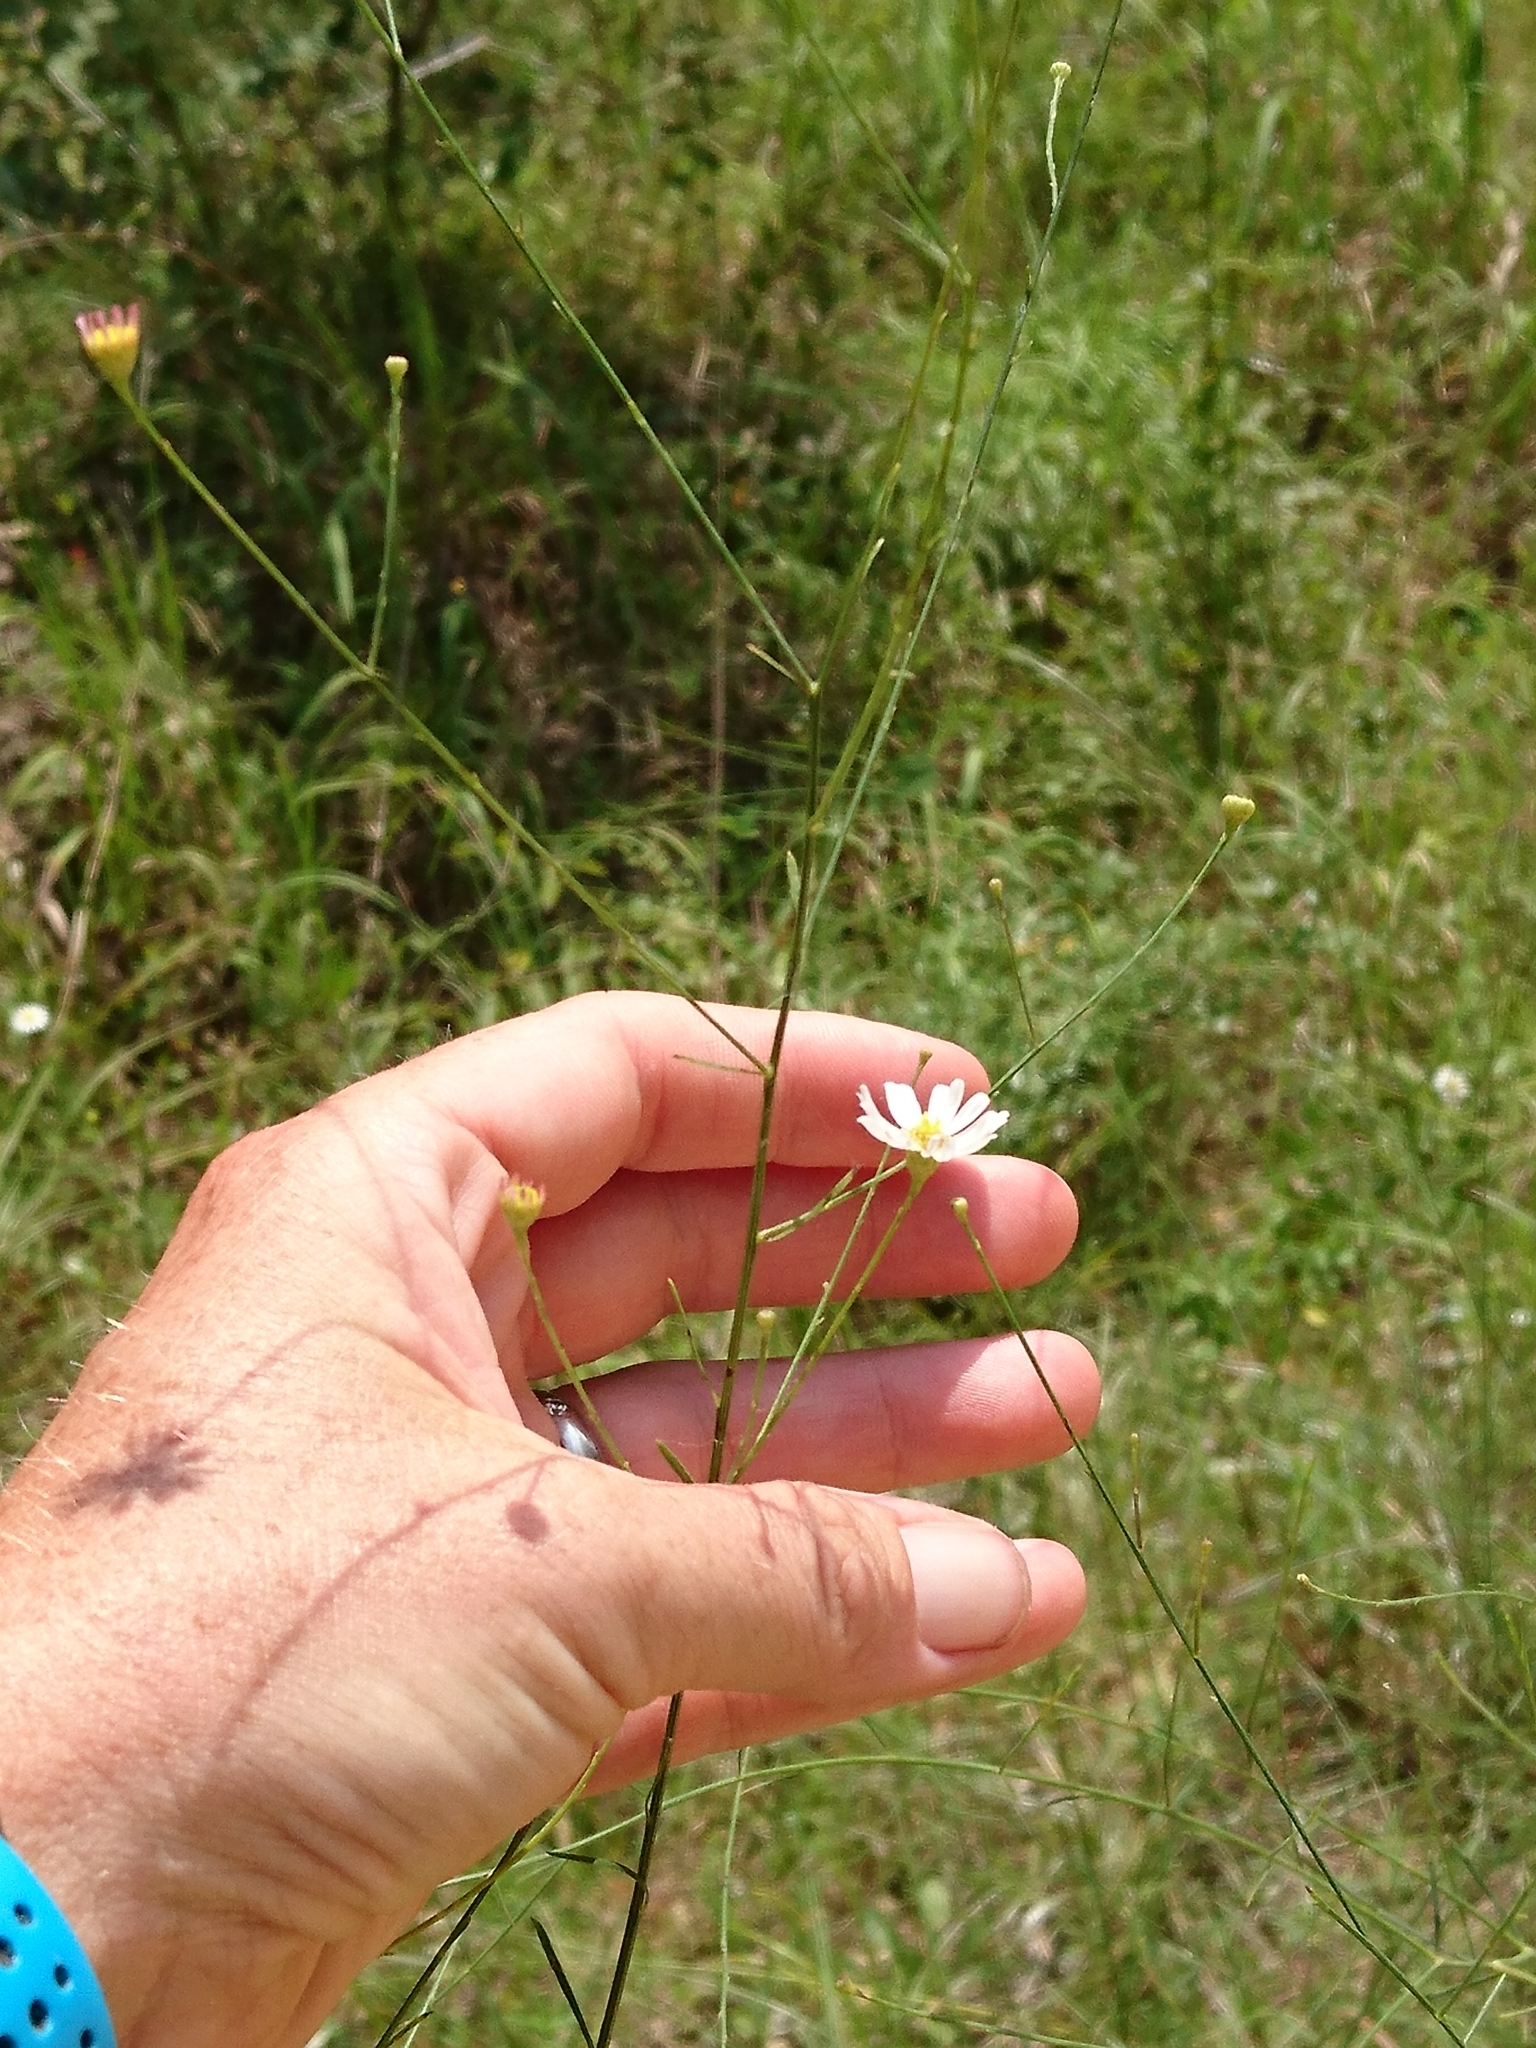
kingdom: Plantae
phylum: Tracheophyta
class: Magnoliopsida
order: Asterales
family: Asteraceae
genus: Boltonia
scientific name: Boltonia diffusa
